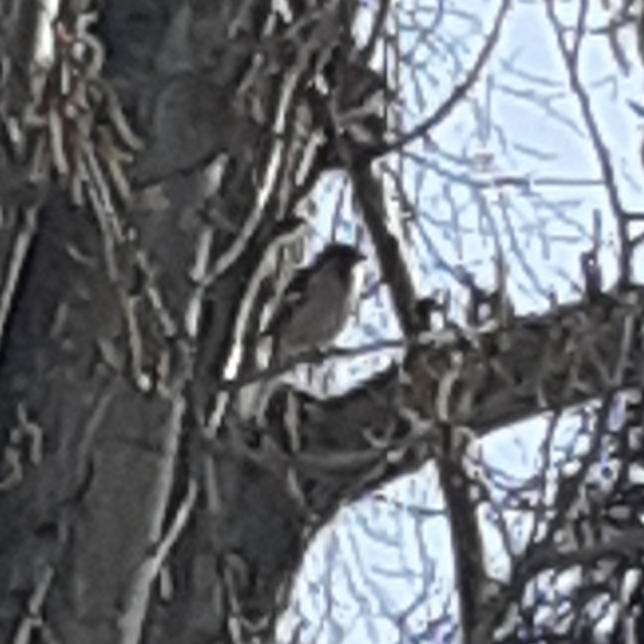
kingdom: Animalia
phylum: Chordata
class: Aves
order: Passeriformes
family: Fringillidae
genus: Fringilla
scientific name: Fringilla coelebs
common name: Common chaffinch
